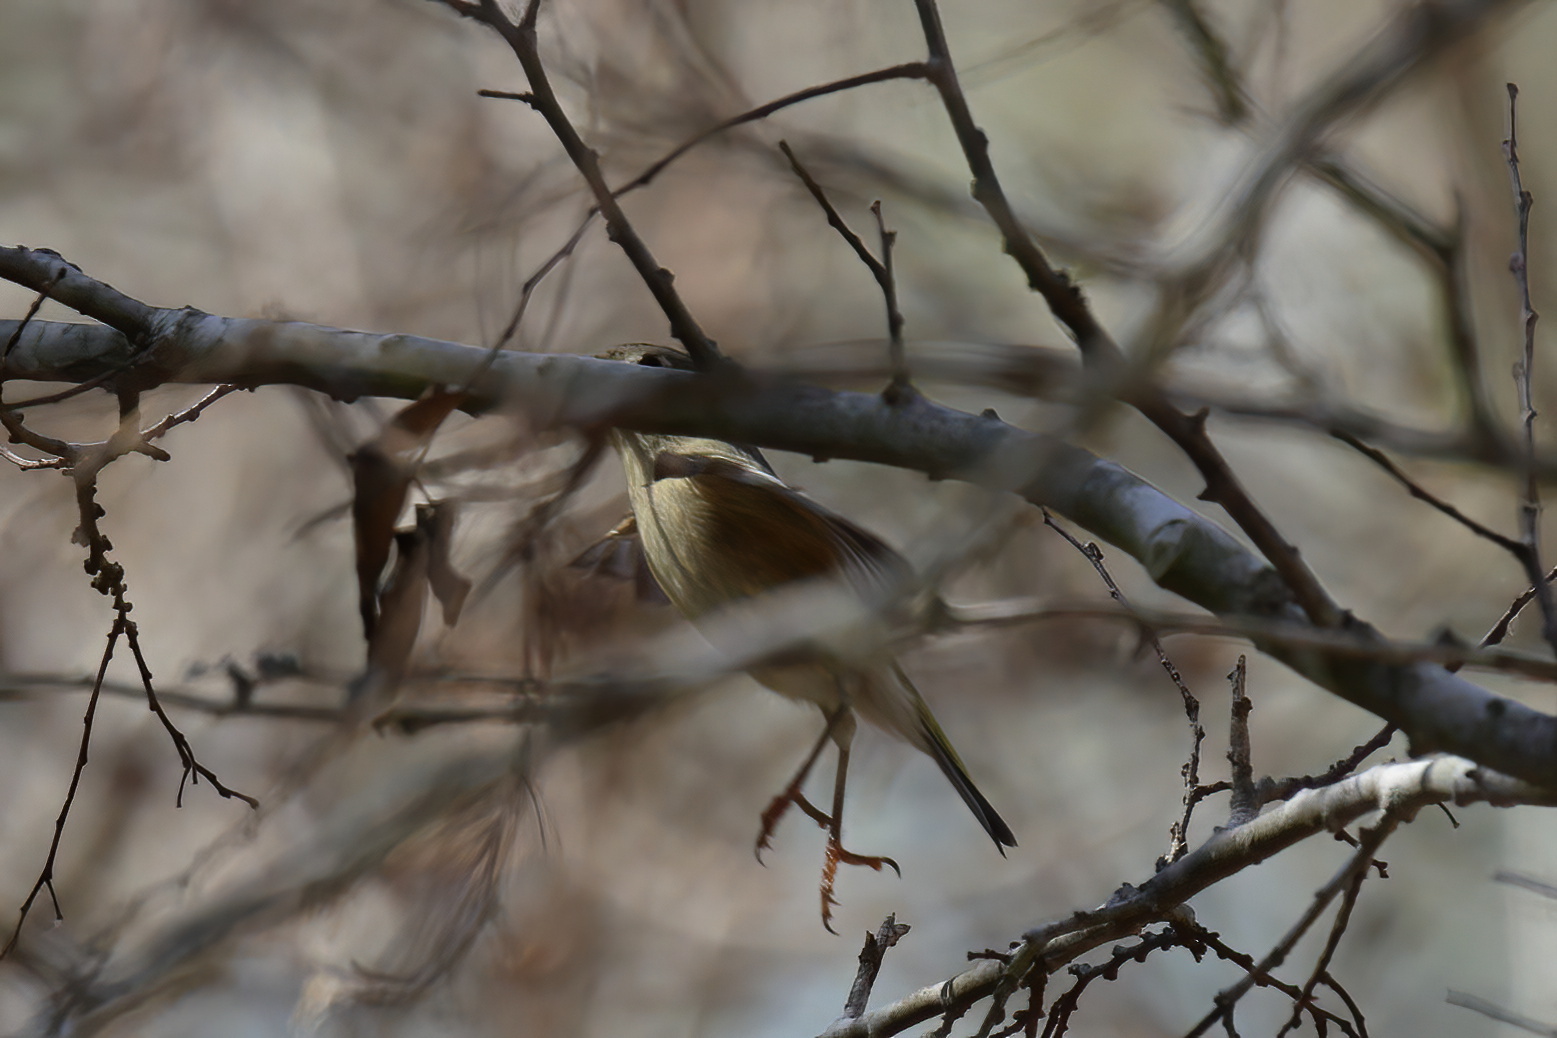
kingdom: Animalia
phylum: Chordata
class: Aves
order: Passeriformes
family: Regulidae
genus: Regulus
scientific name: Regulus calendula
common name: Ruby-crowned kinglet
